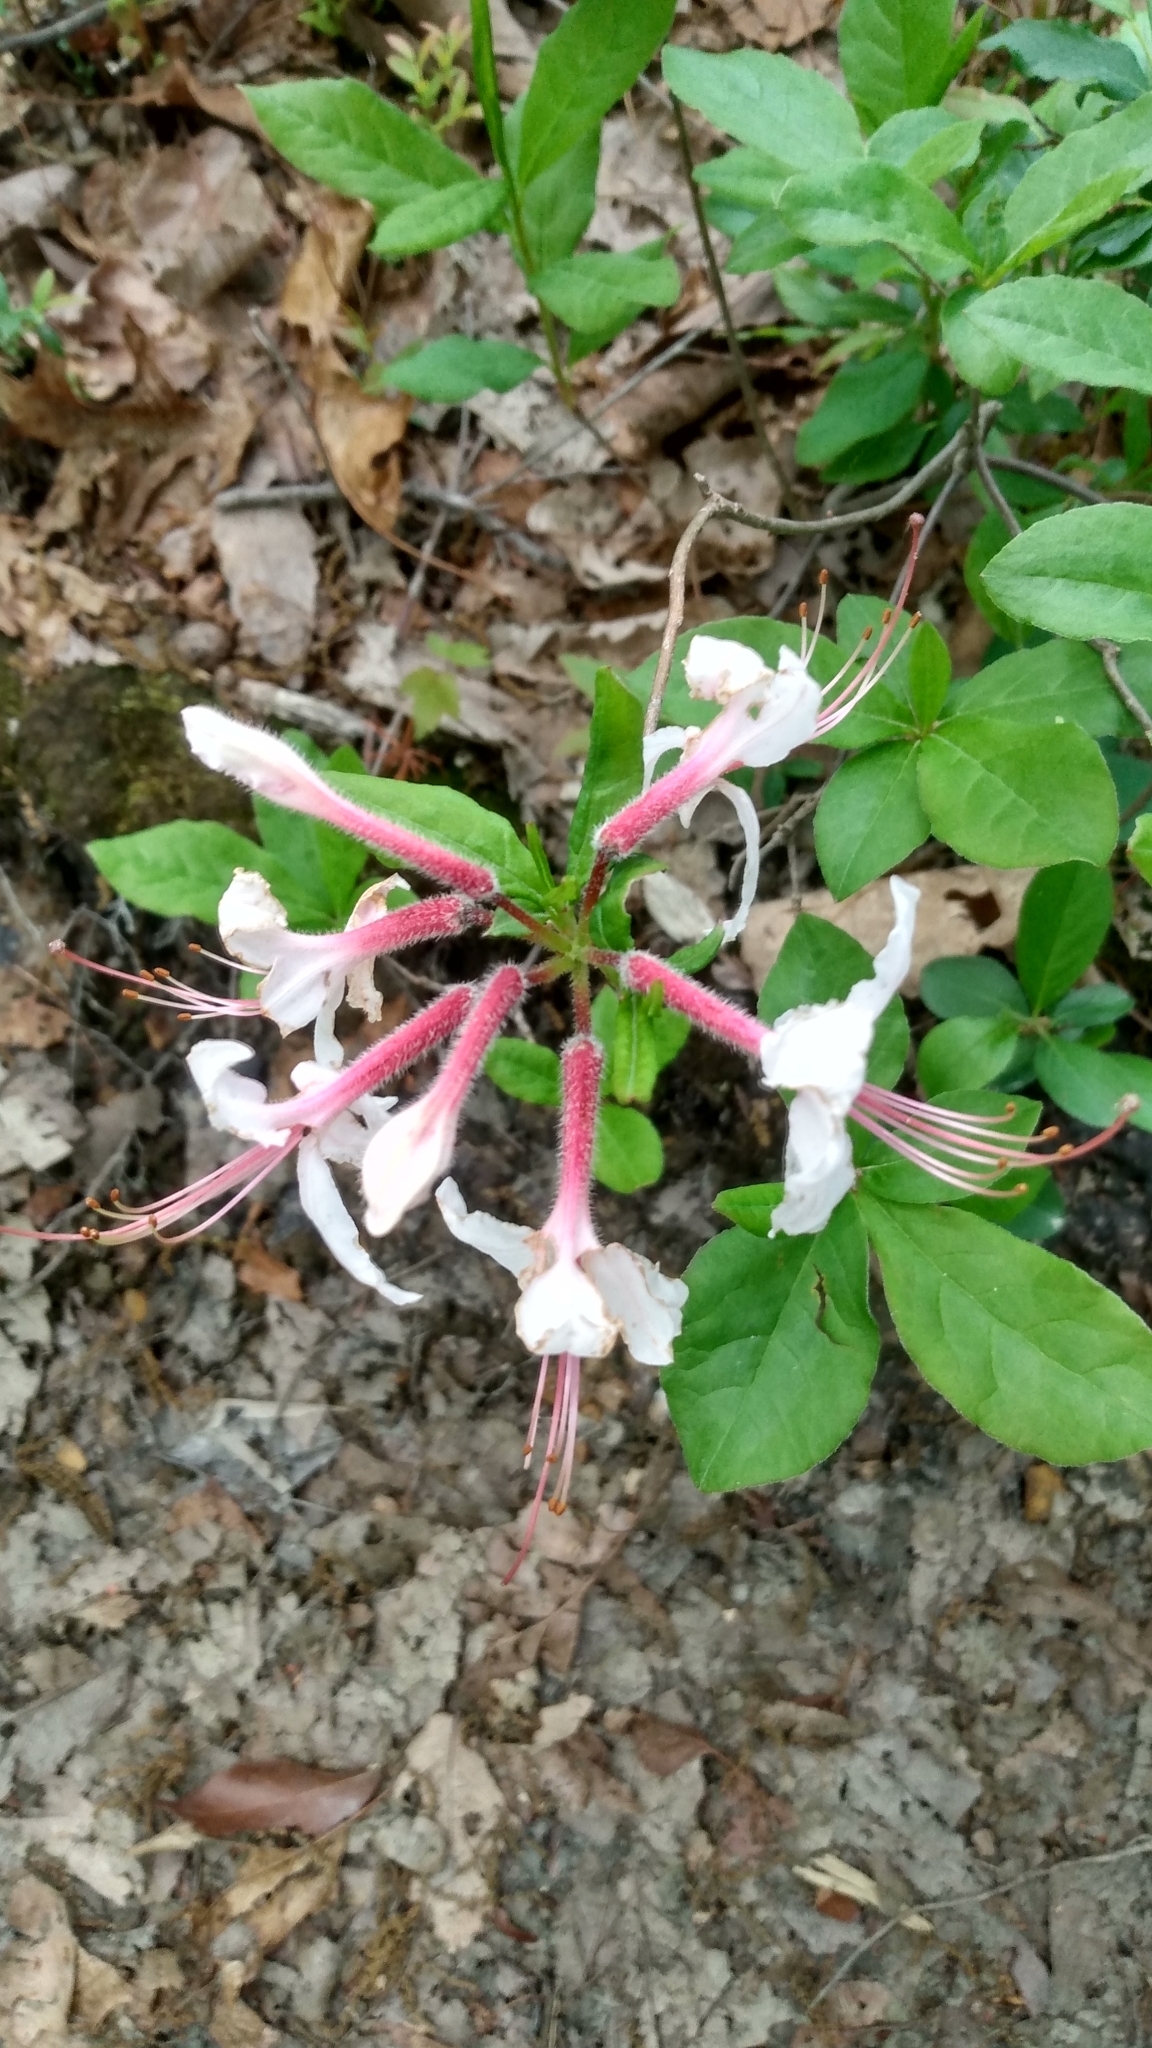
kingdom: Plantae
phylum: Tracheophyta
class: Magnoliopsida
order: Ericales
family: Ericaceae
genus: Rhododendron
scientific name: Rhododendron periclymenoides
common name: Election-pink
